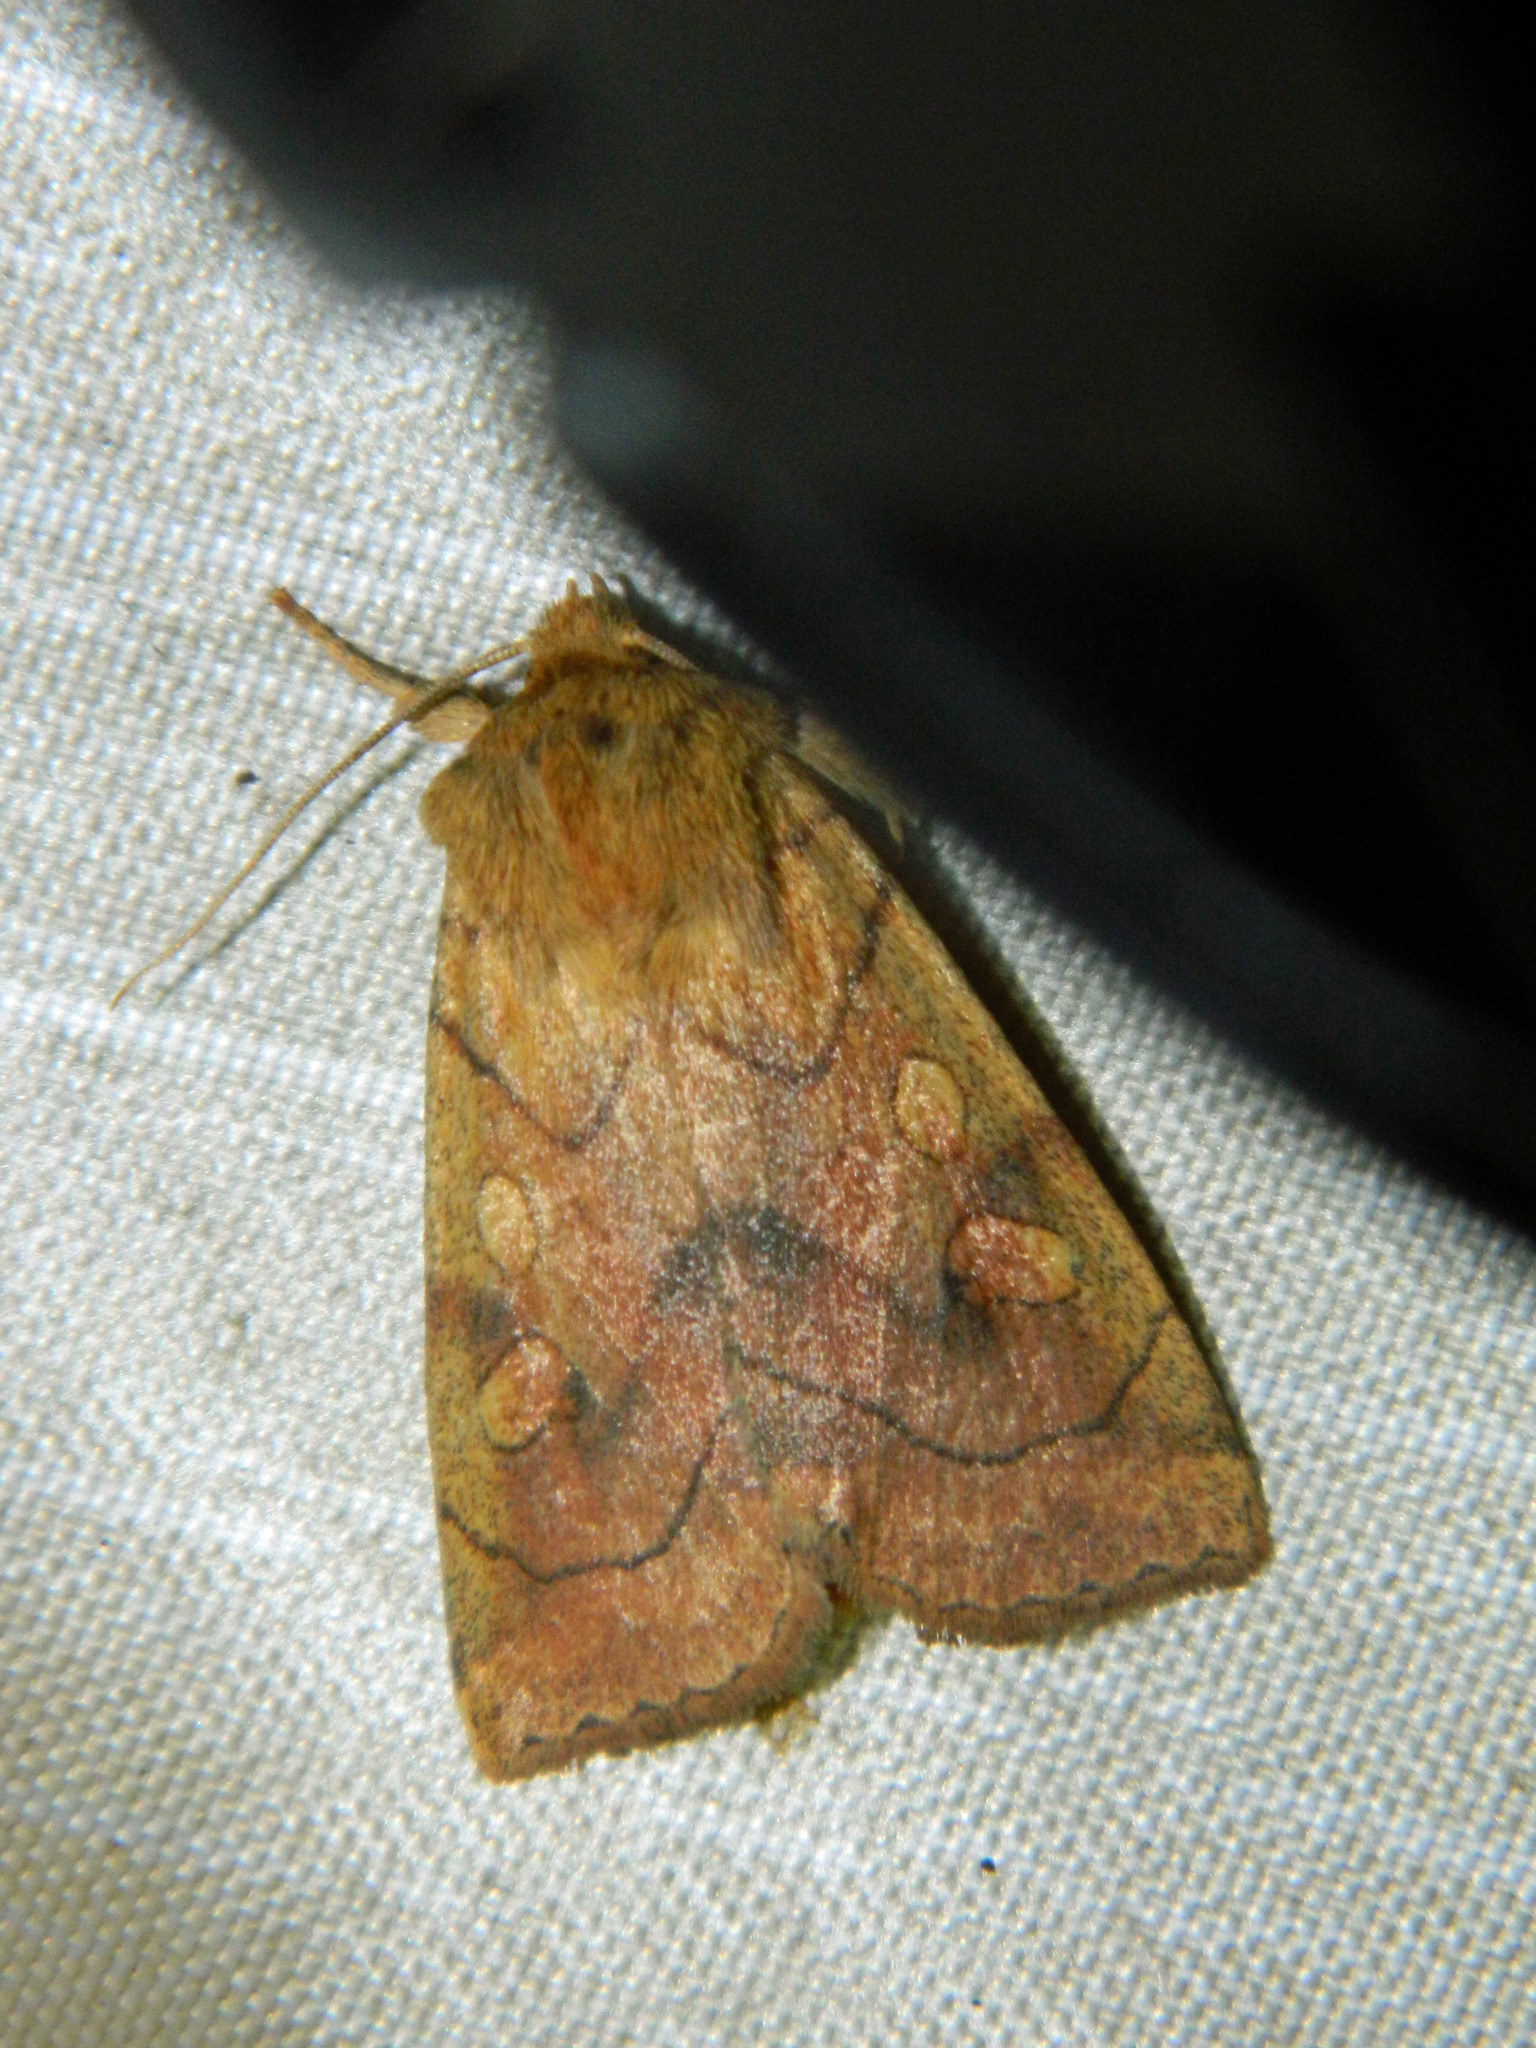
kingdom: Animalia
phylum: Arthropoda
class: Insecta
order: Lepidoptera
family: Noctuidae
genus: Enargia
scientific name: Enargia decolor
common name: Aspen twoleaf tier moth
